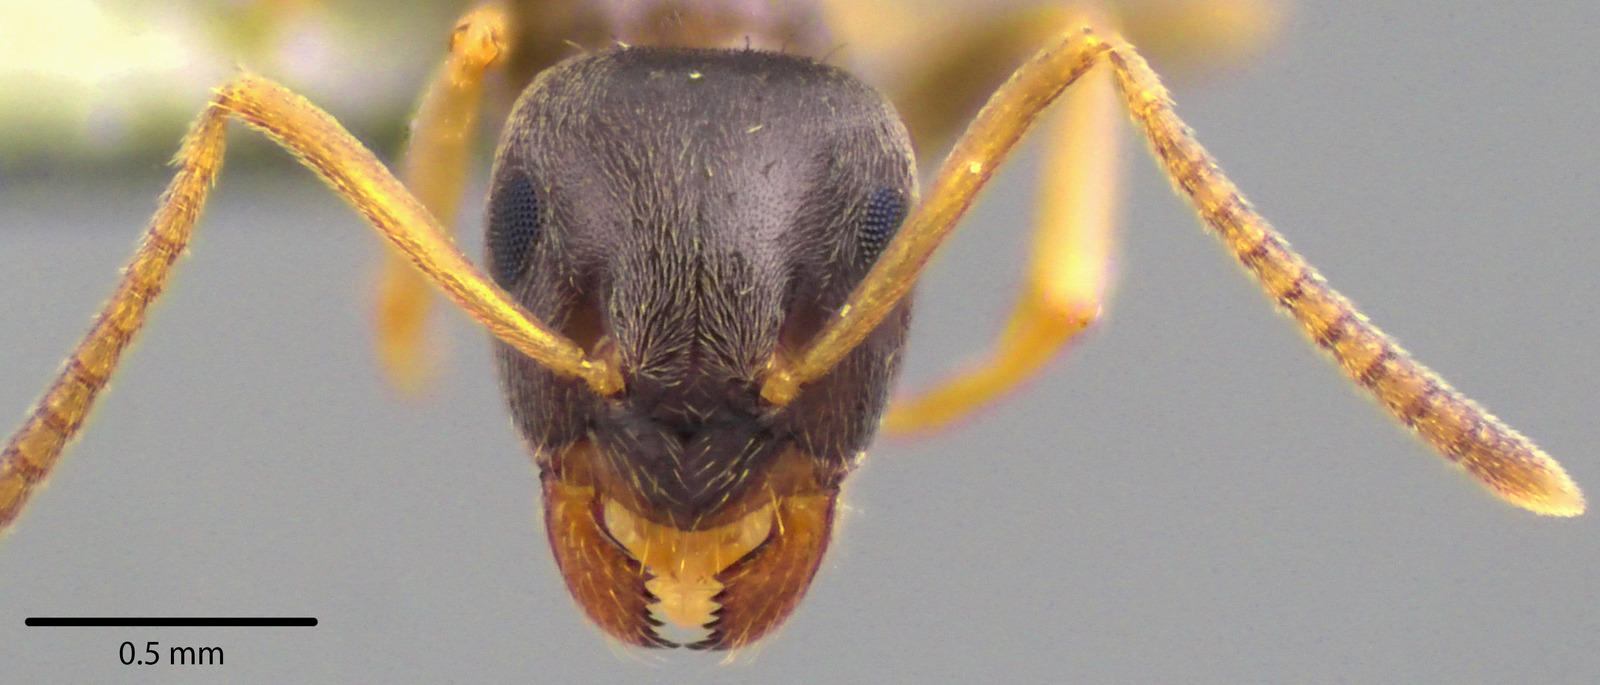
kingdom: Animalia
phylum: Arthropoda
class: Insecta
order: Hymenoptera
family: Formicidae
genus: Lasius
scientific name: Lasius americanus
